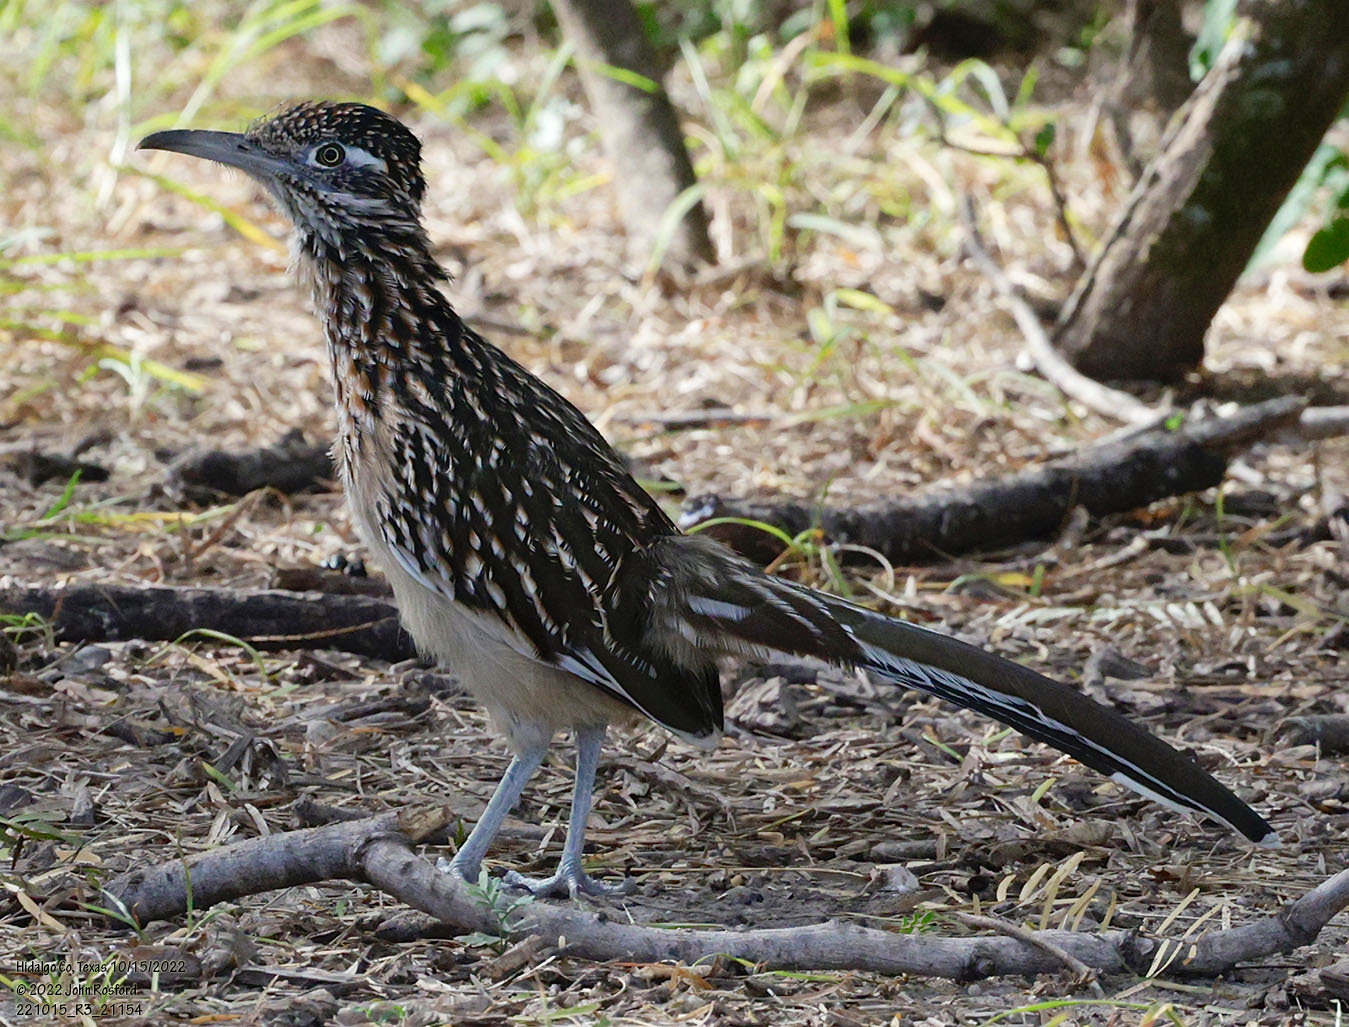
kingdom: Animalia
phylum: Chordata
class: Aves
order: Cuculiformes
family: Cuculidae
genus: Geococcyx
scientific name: Geococcyx californianus
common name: Greater roadrunner
